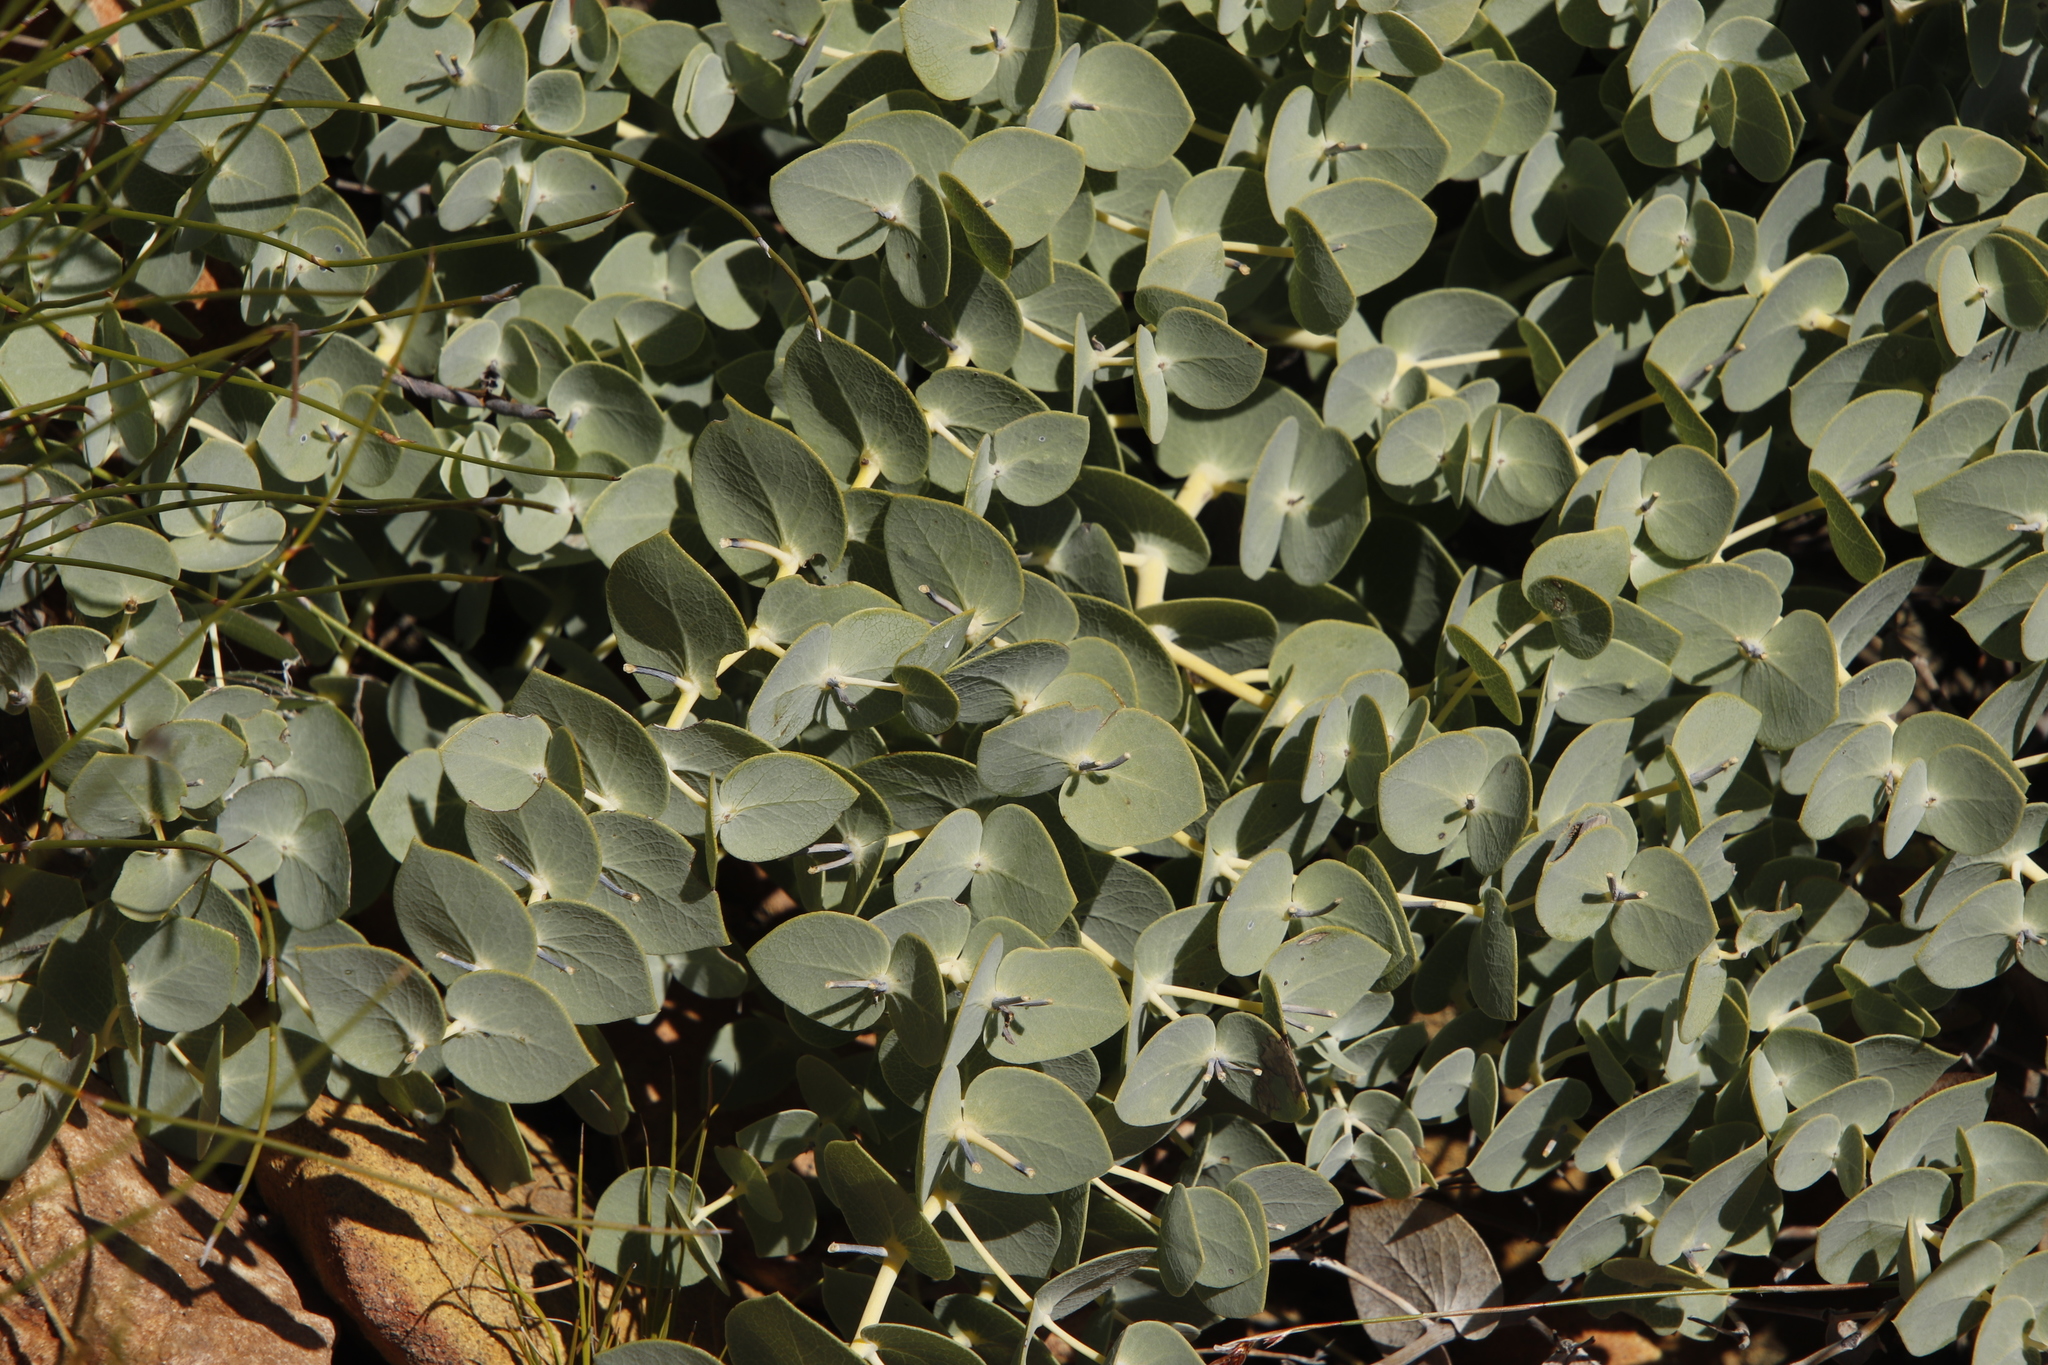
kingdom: Plantae
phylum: Tracheophyta
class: Magnoliopsida
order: Fabales
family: Fabaceae
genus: Rafnia
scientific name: Rafnia acuminata
